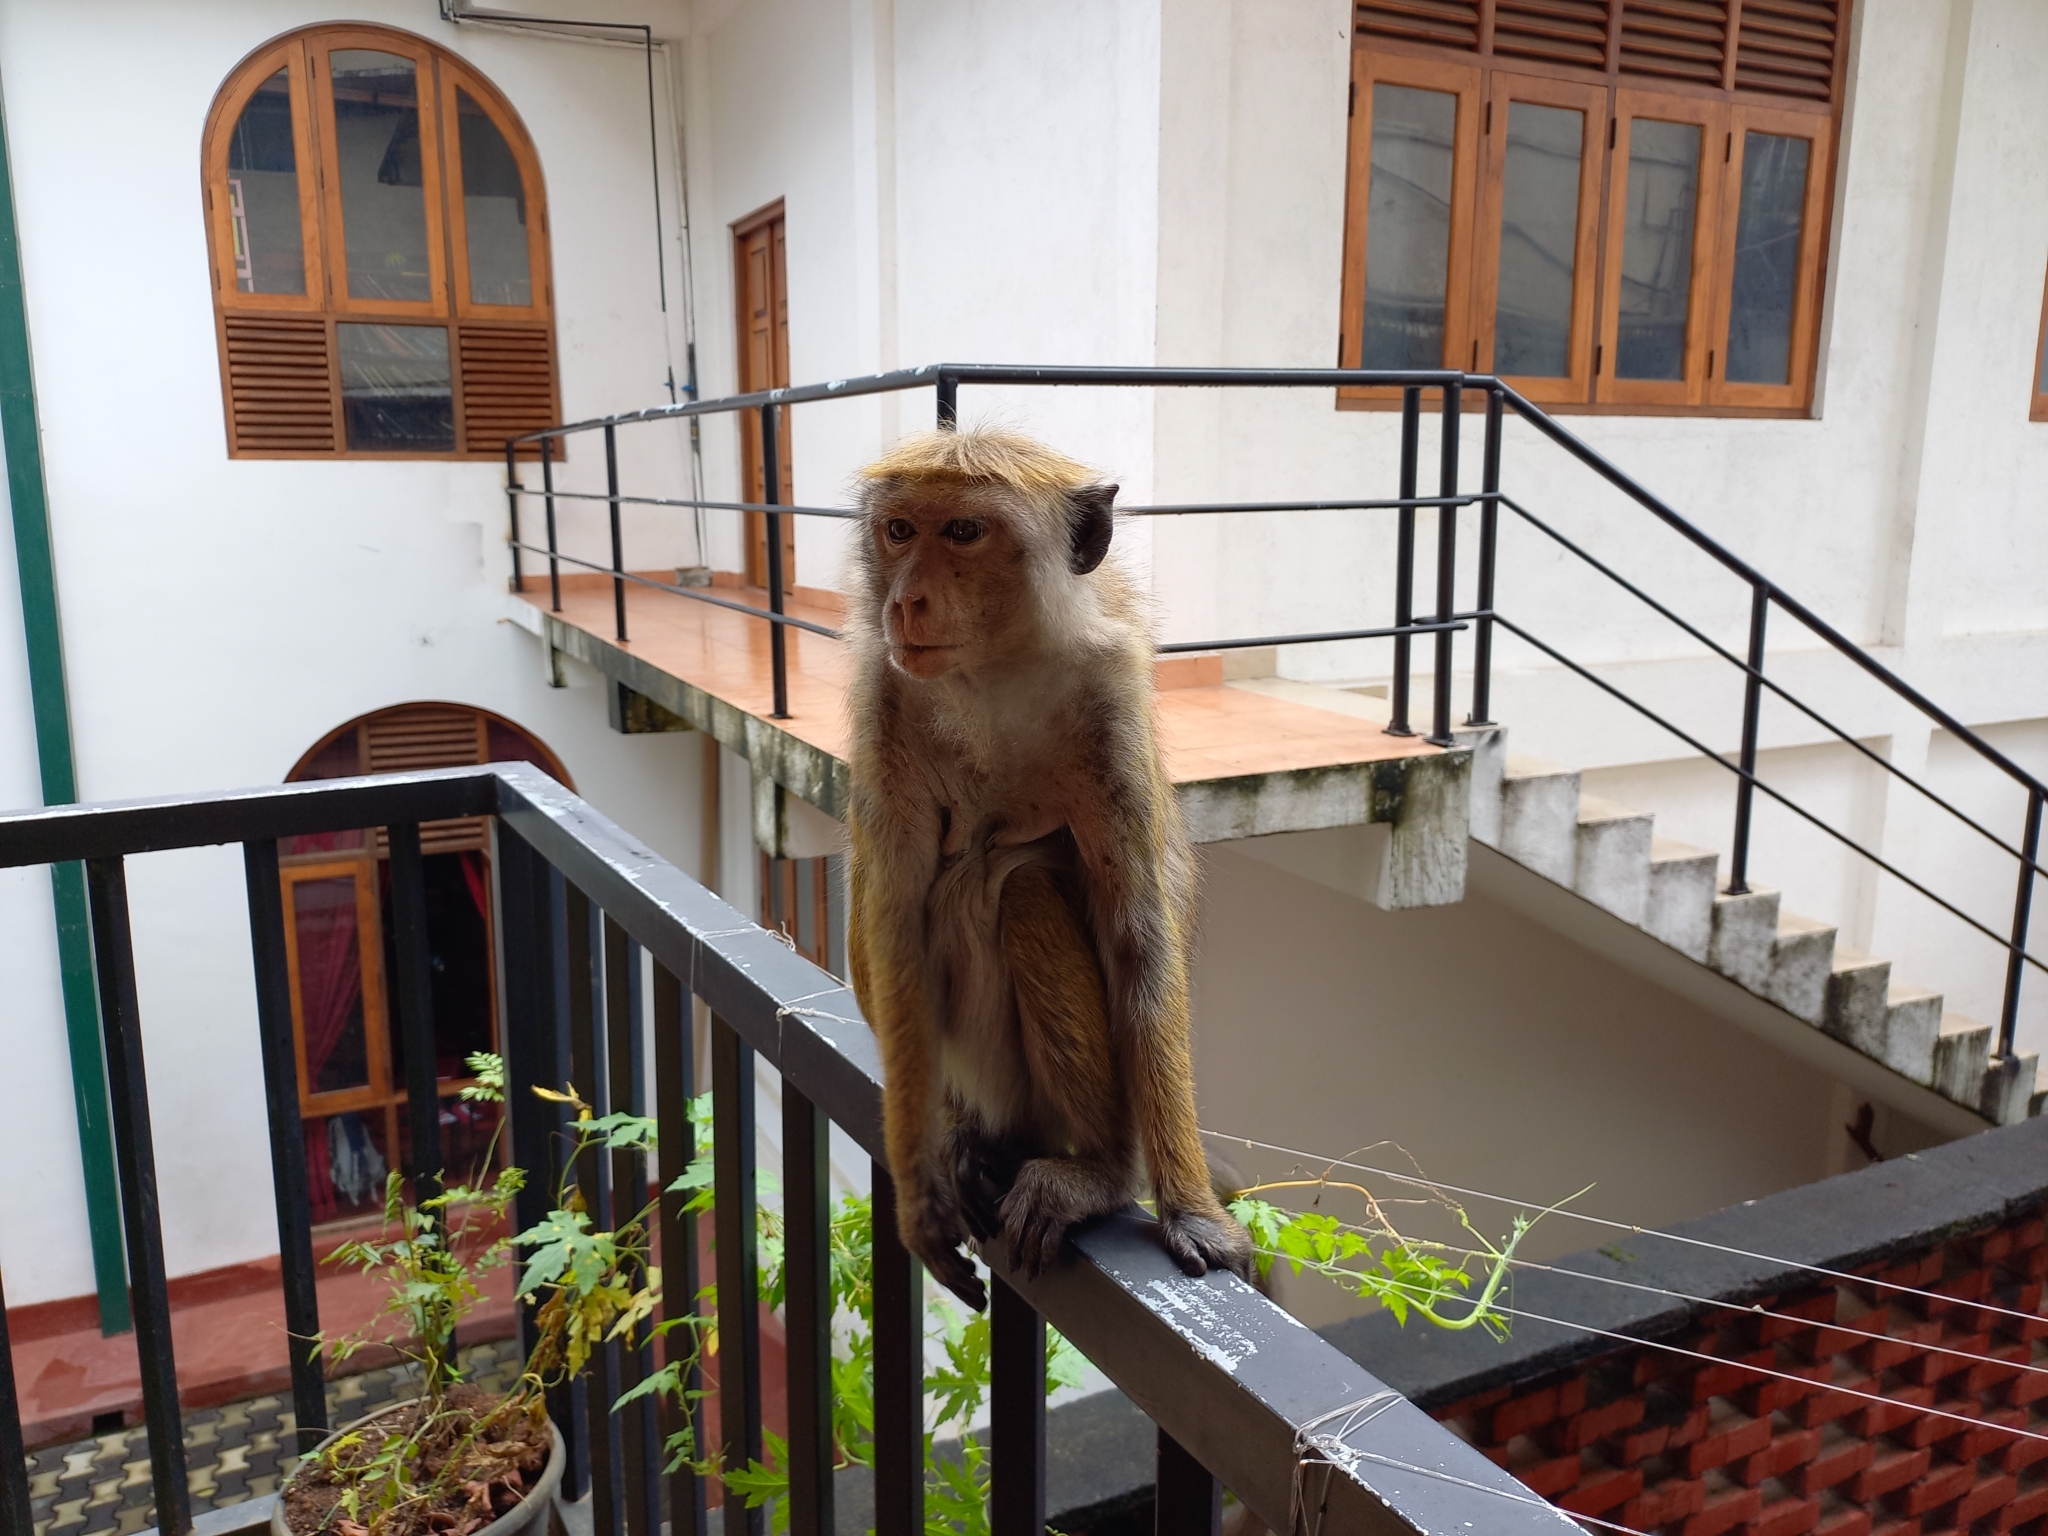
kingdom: Animalia
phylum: Chordata
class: Mammalia
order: Primates
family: Cercopithecidae
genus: Macaca
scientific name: Macaca sinica
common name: Toque macaque
